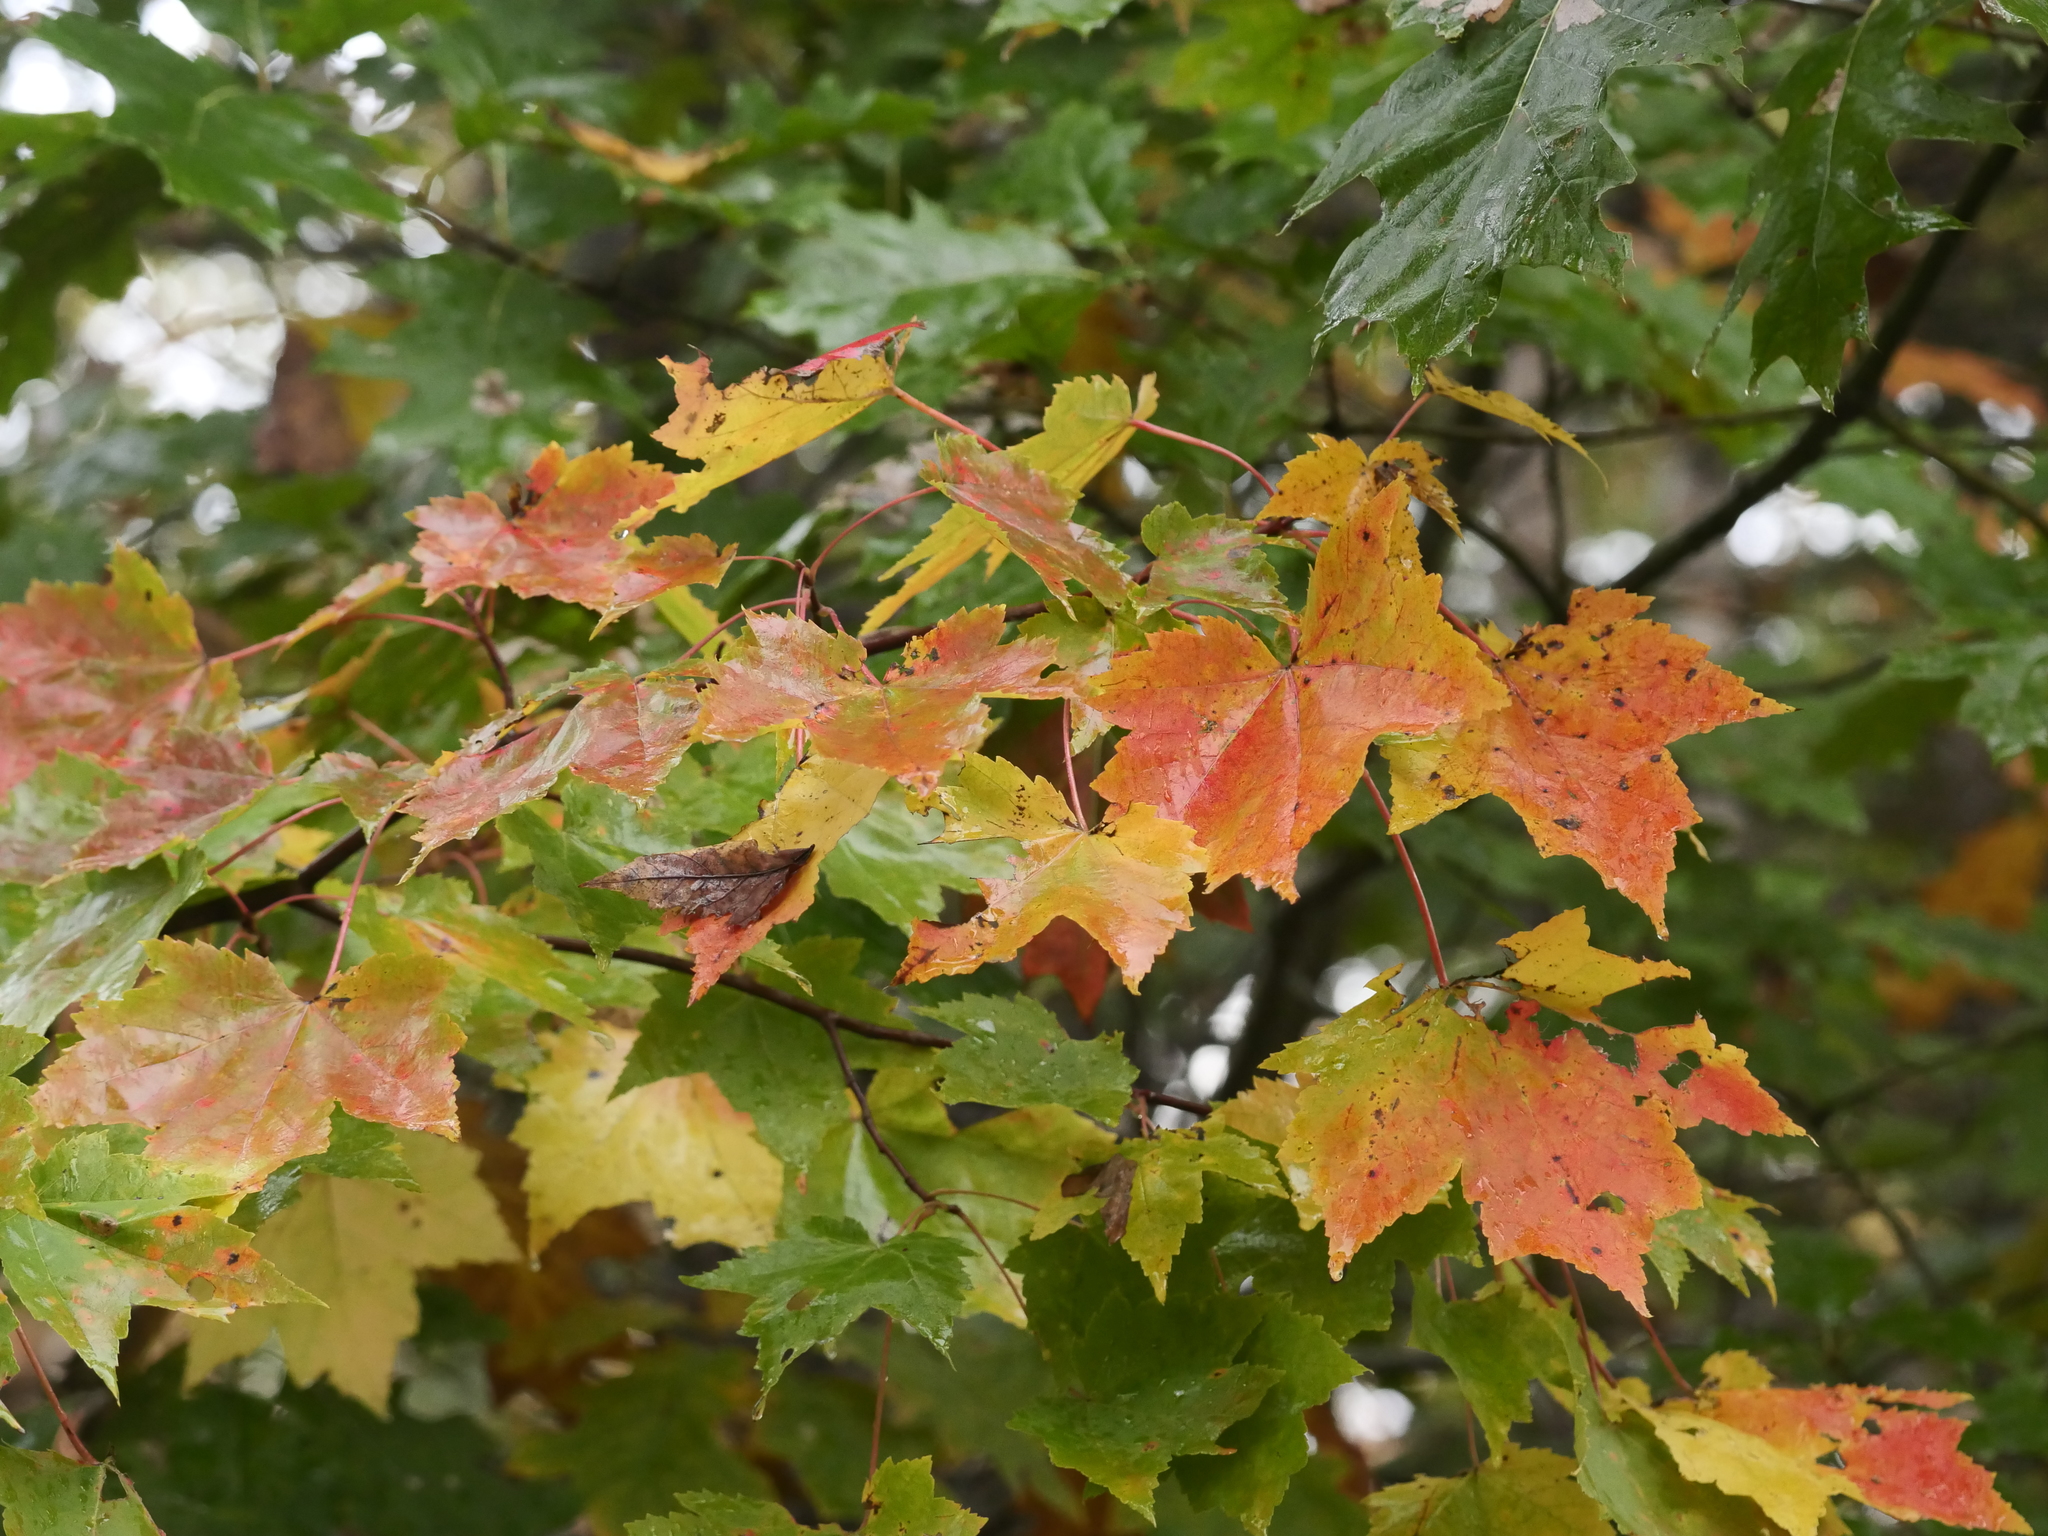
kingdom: Plantae
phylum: Tracheophyta
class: Magnoliopsida
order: Sapindales
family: Sapindaceae
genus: Acer
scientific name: Acer rubrum
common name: Red maple
